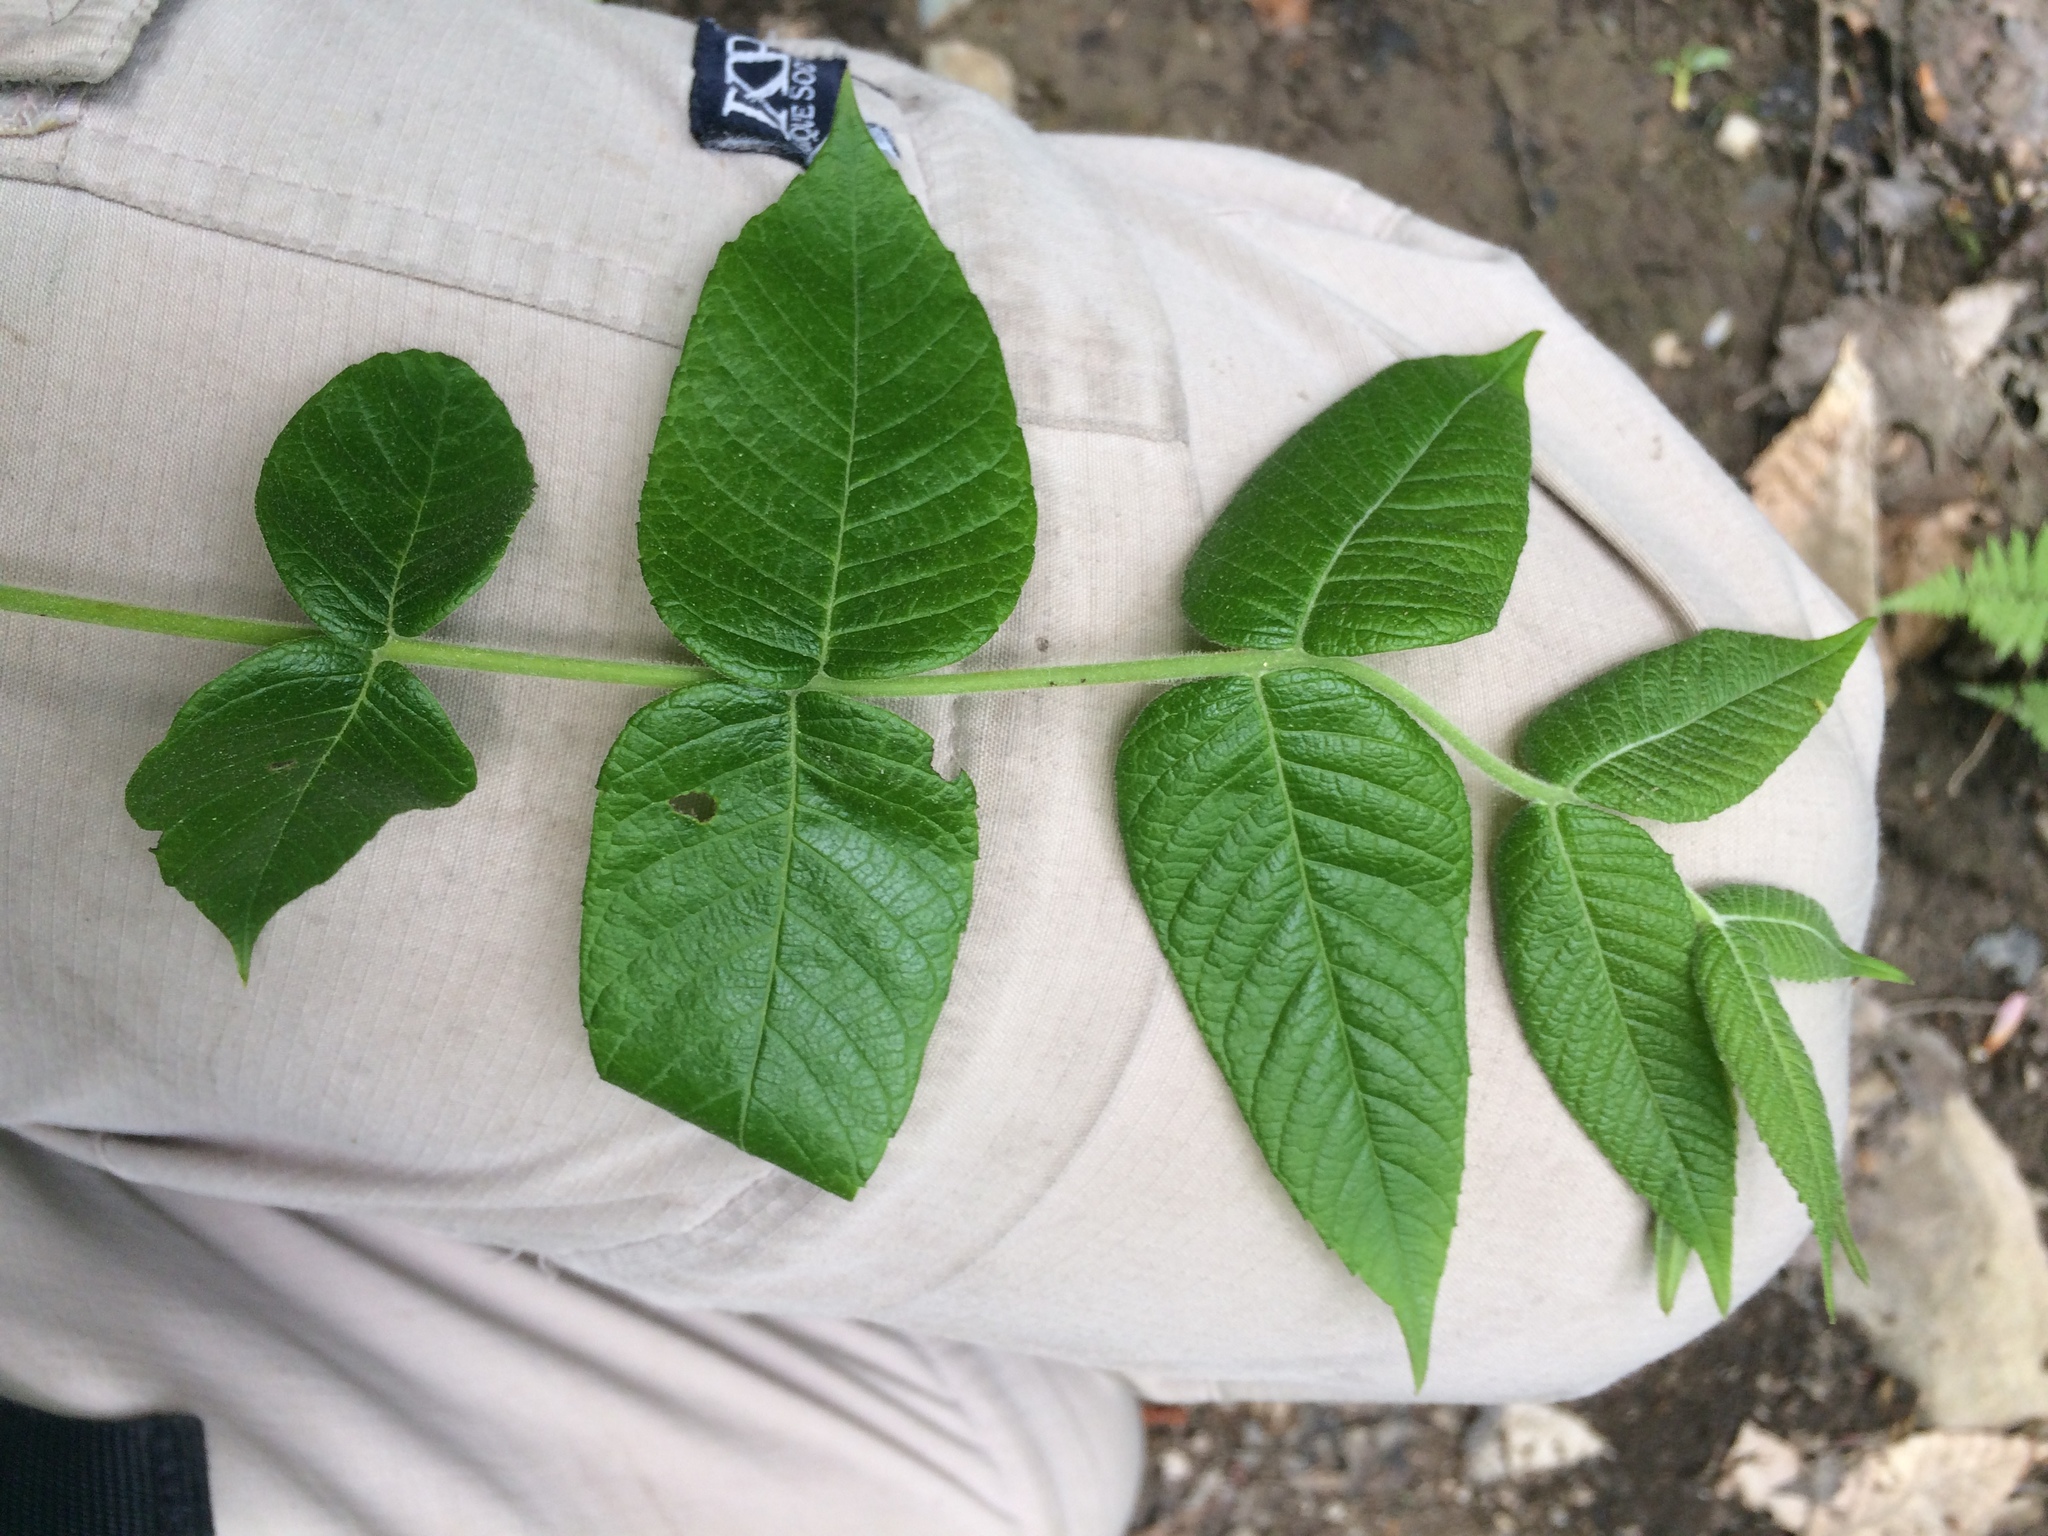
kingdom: Plantae
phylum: Tracheophyta
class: Magnoliopsida
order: Fagales
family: Juglandaceae
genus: Juglans
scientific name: Juglans cinerea
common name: Butternut
